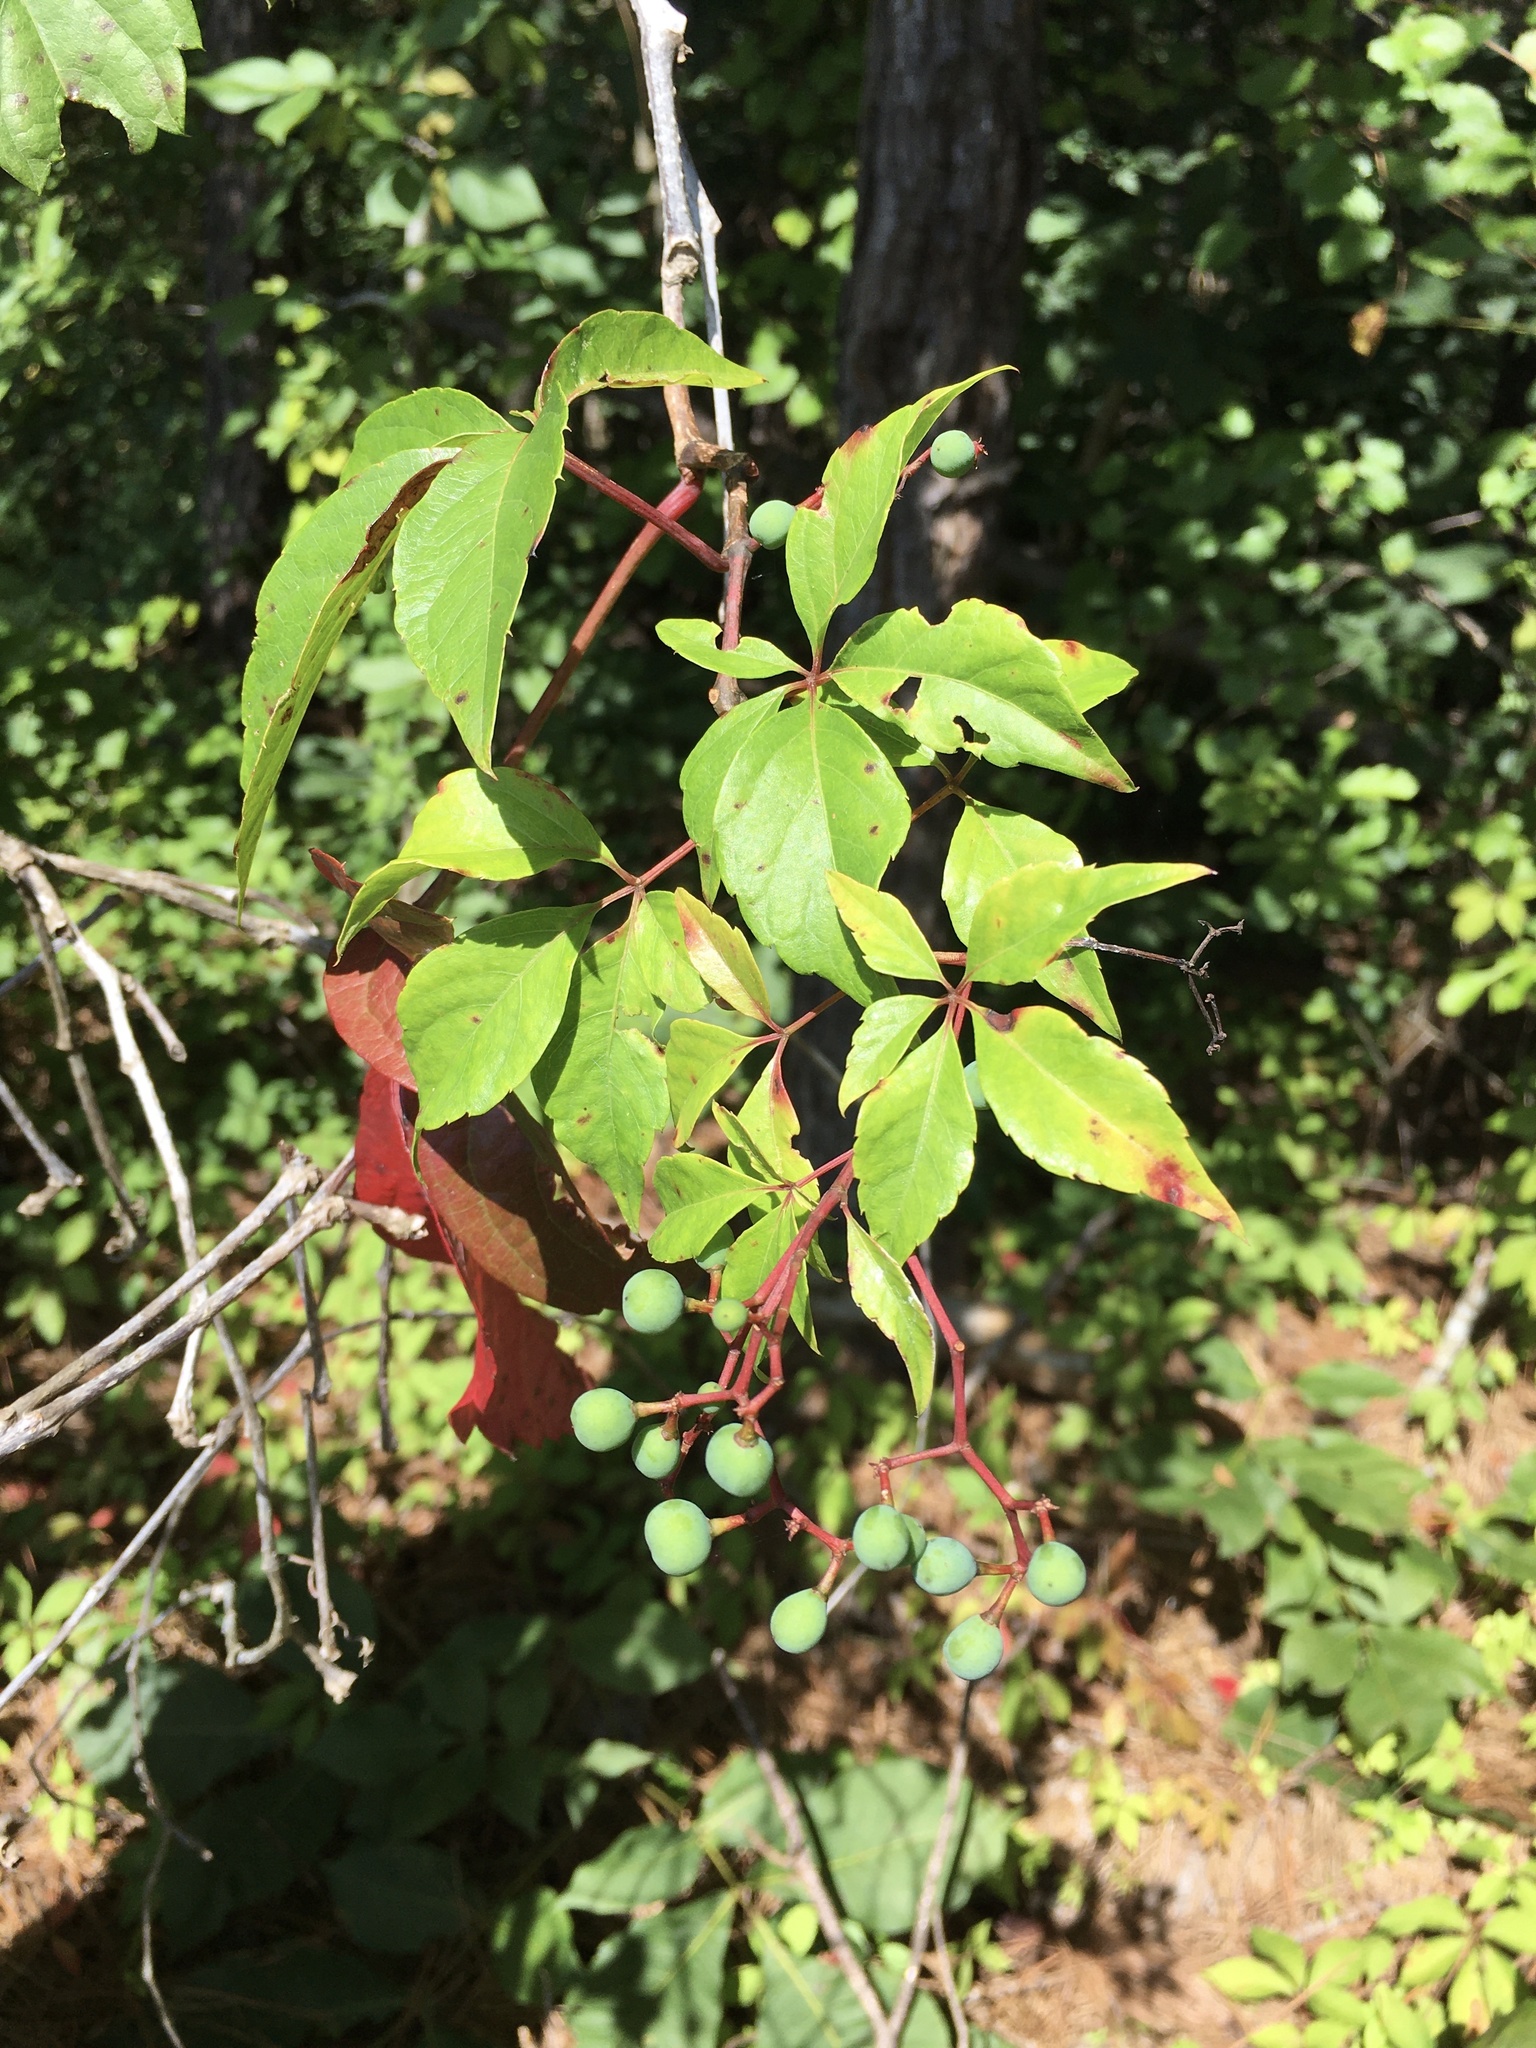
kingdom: Plantae
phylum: Tracheophyta
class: Magnoliopsida
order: Vitales
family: Vitaceae
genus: Parthenocissus
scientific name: Parthenocissus quinquefolia
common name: Virginia-creeper
